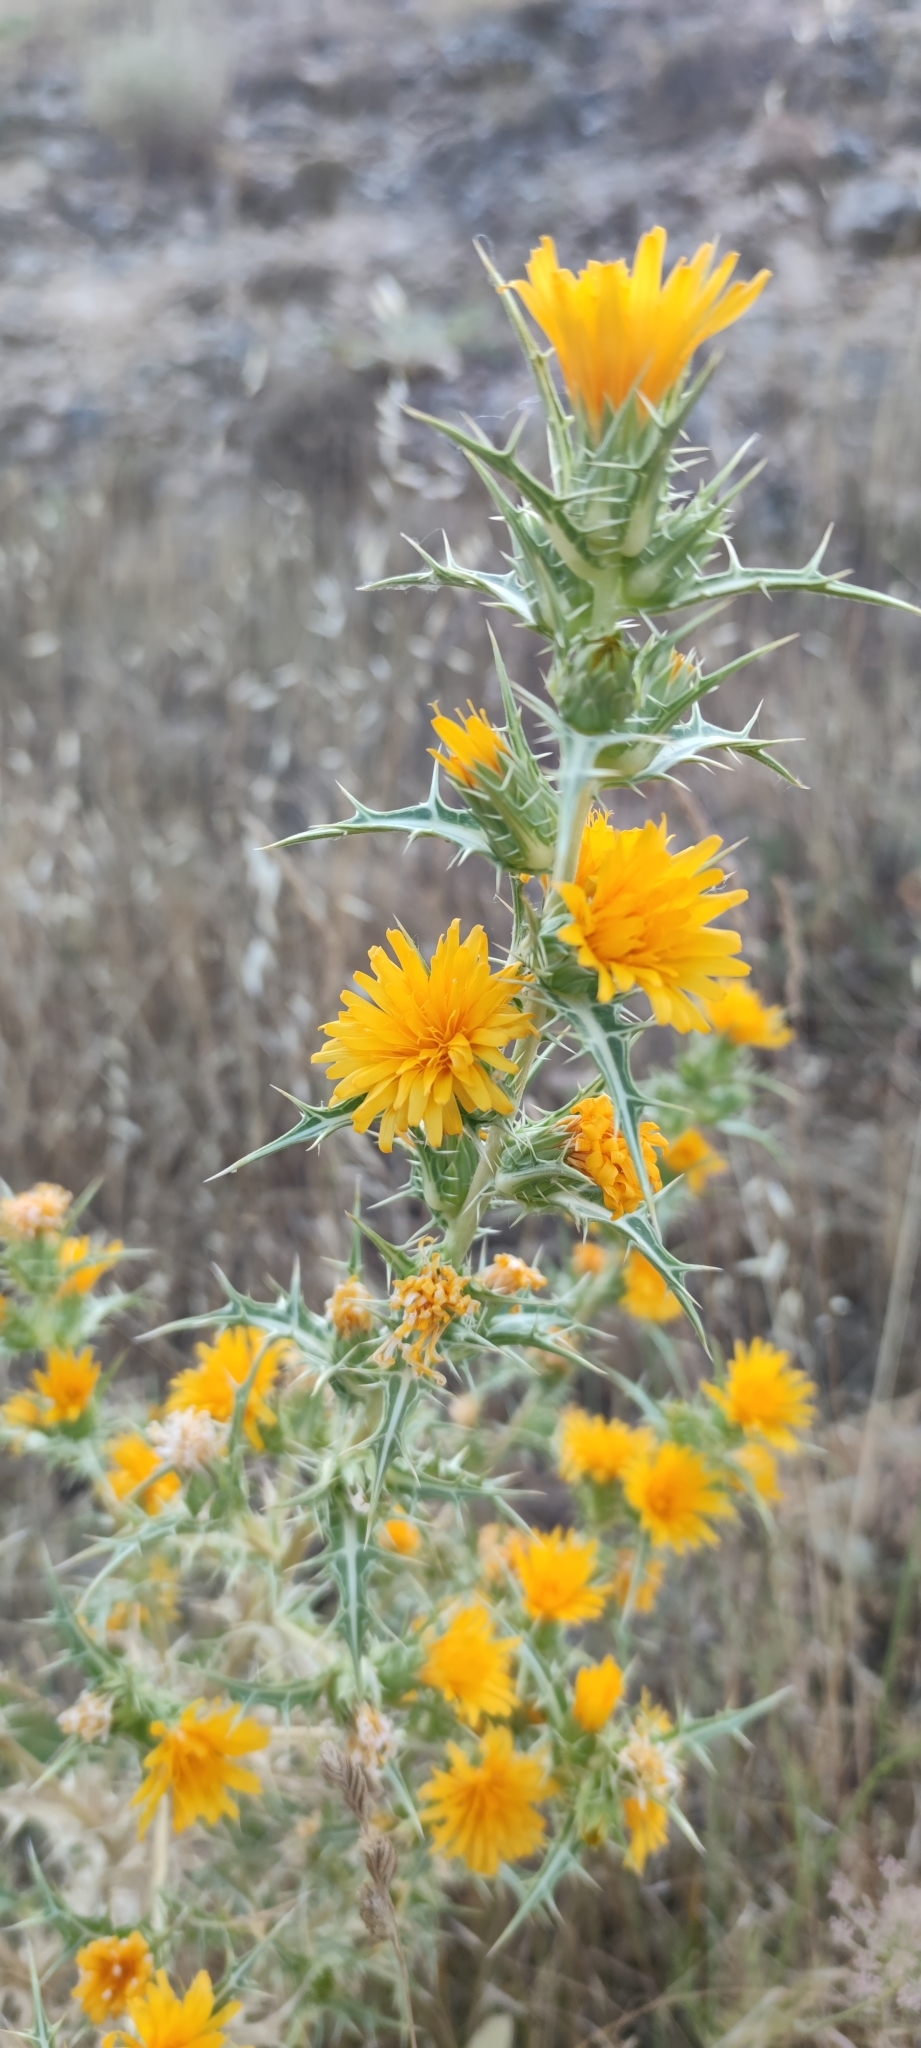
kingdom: Plantae
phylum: Tracheophyta
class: Magnoliopsida
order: Asterales
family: Asteraceae
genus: Scolymus
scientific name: Scolymus hispanicus
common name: Golden thistle
